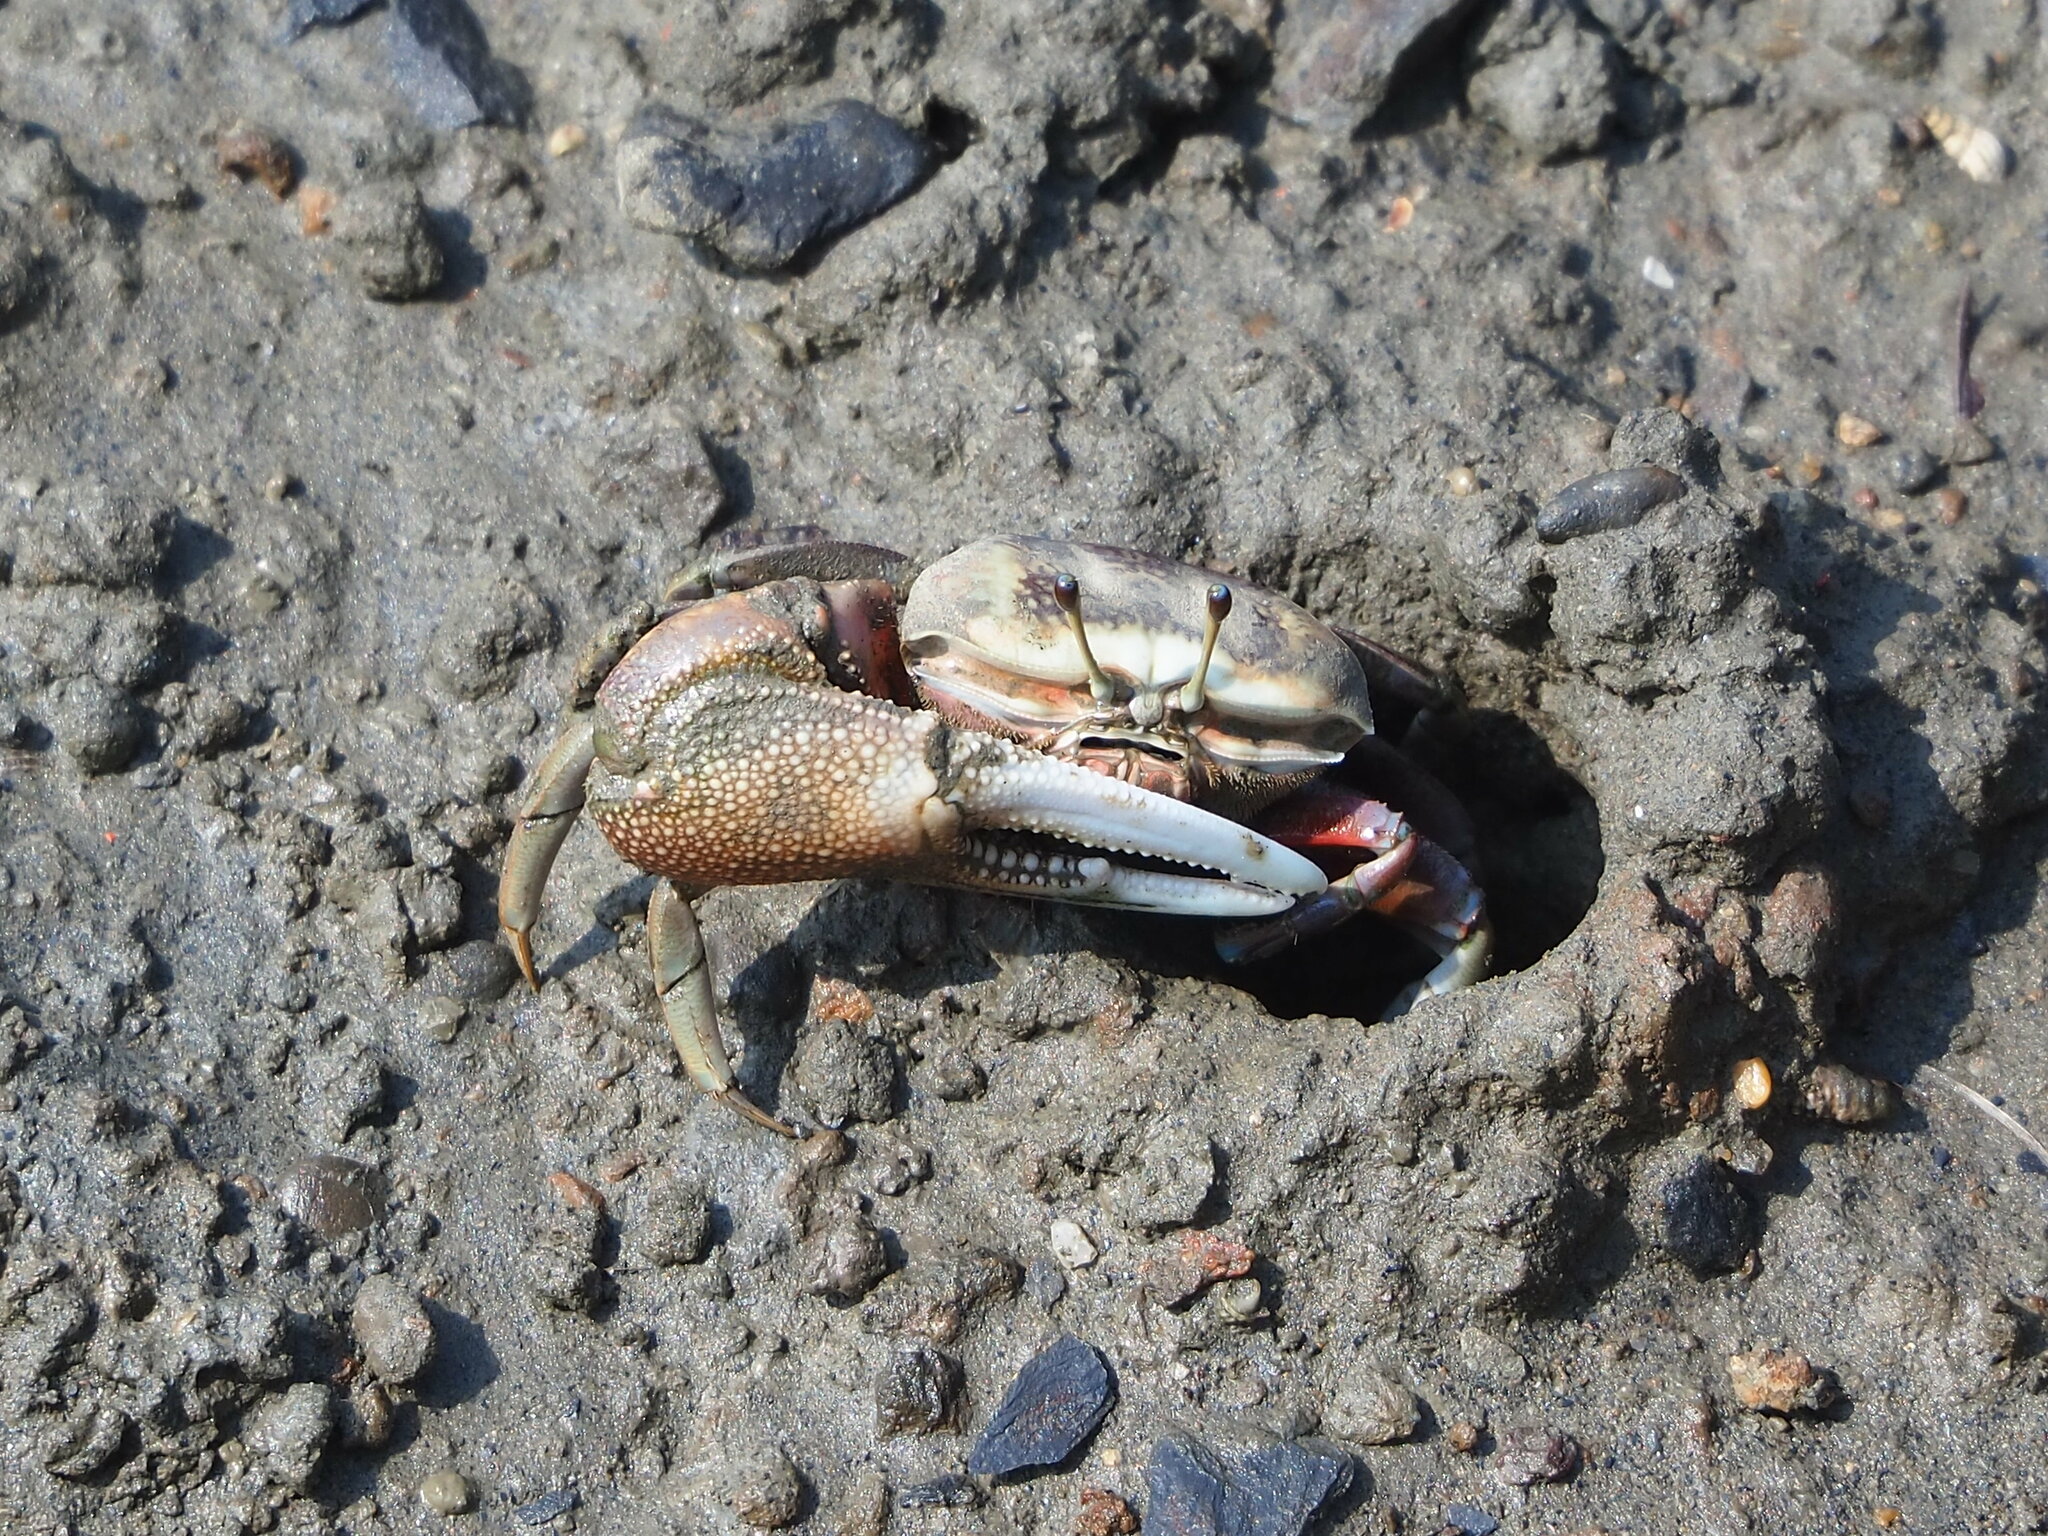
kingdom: Animalia
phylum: Arthropoda
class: Malacostraca
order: Decapoda
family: Ocypodidae
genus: Tubuca
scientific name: Tubuca arcuata
